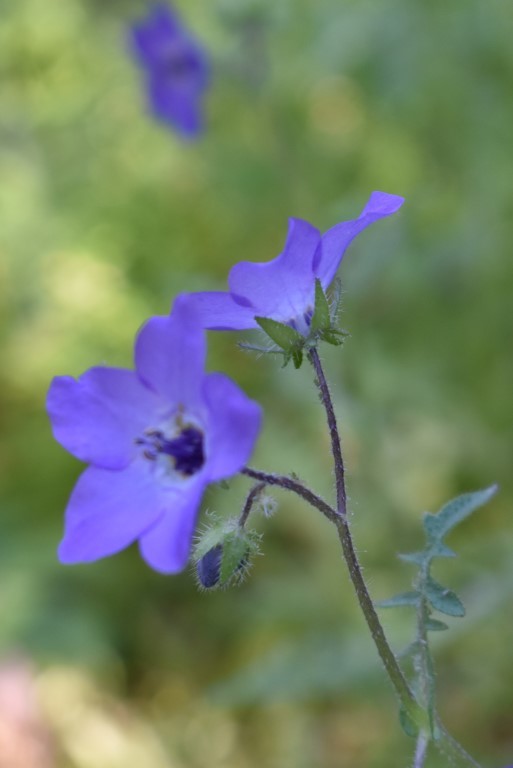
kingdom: Plantae
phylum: Tracheophyta
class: Magnoliopsida
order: Boraginales
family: Hydrophyllaceae
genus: Pholistoma
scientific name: Pholistoma auritum
